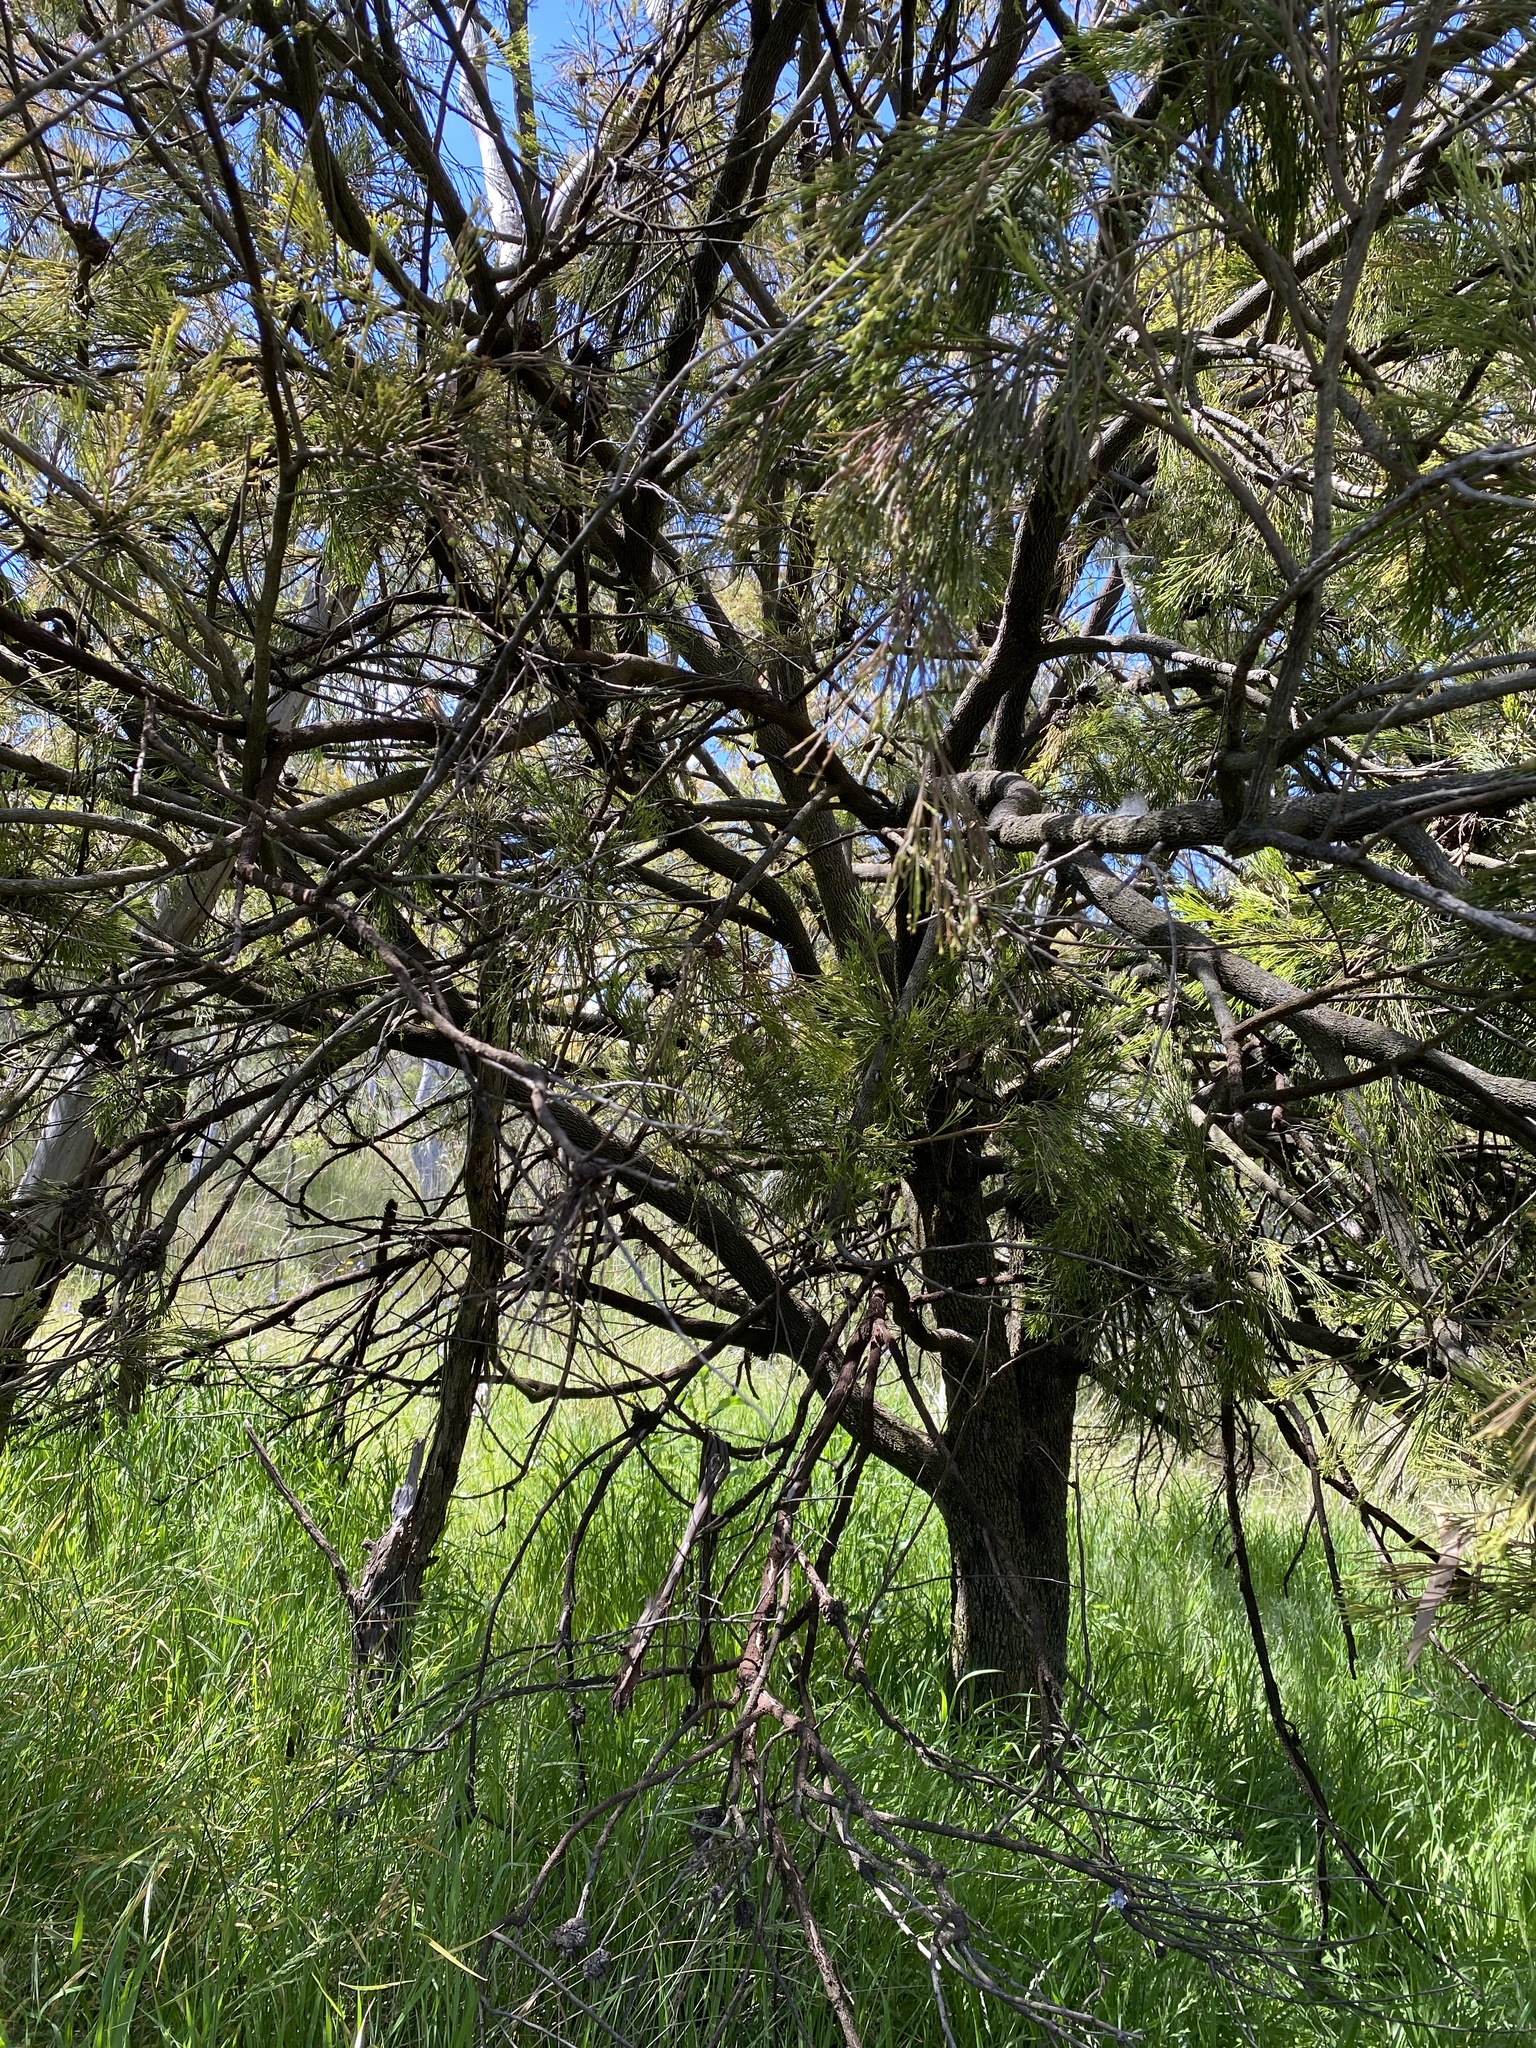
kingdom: Plantae
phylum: Tracheophyta
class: Magnoliopsida
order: Santalales
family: Santalaceae
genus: Exocarpos
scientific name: Exocarpos cupressiformis
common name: Cherry ballart
